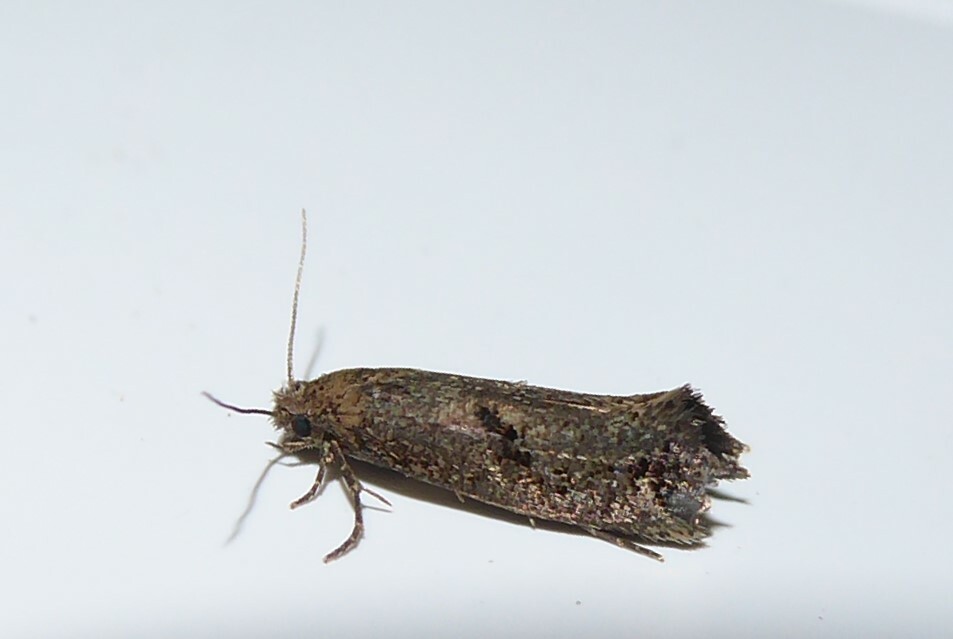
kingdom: Animalia
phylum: Arthropoda
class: Insecta
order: Lepidoptera
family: Tineidae
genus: Tinea
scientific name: Tinea mochlota
